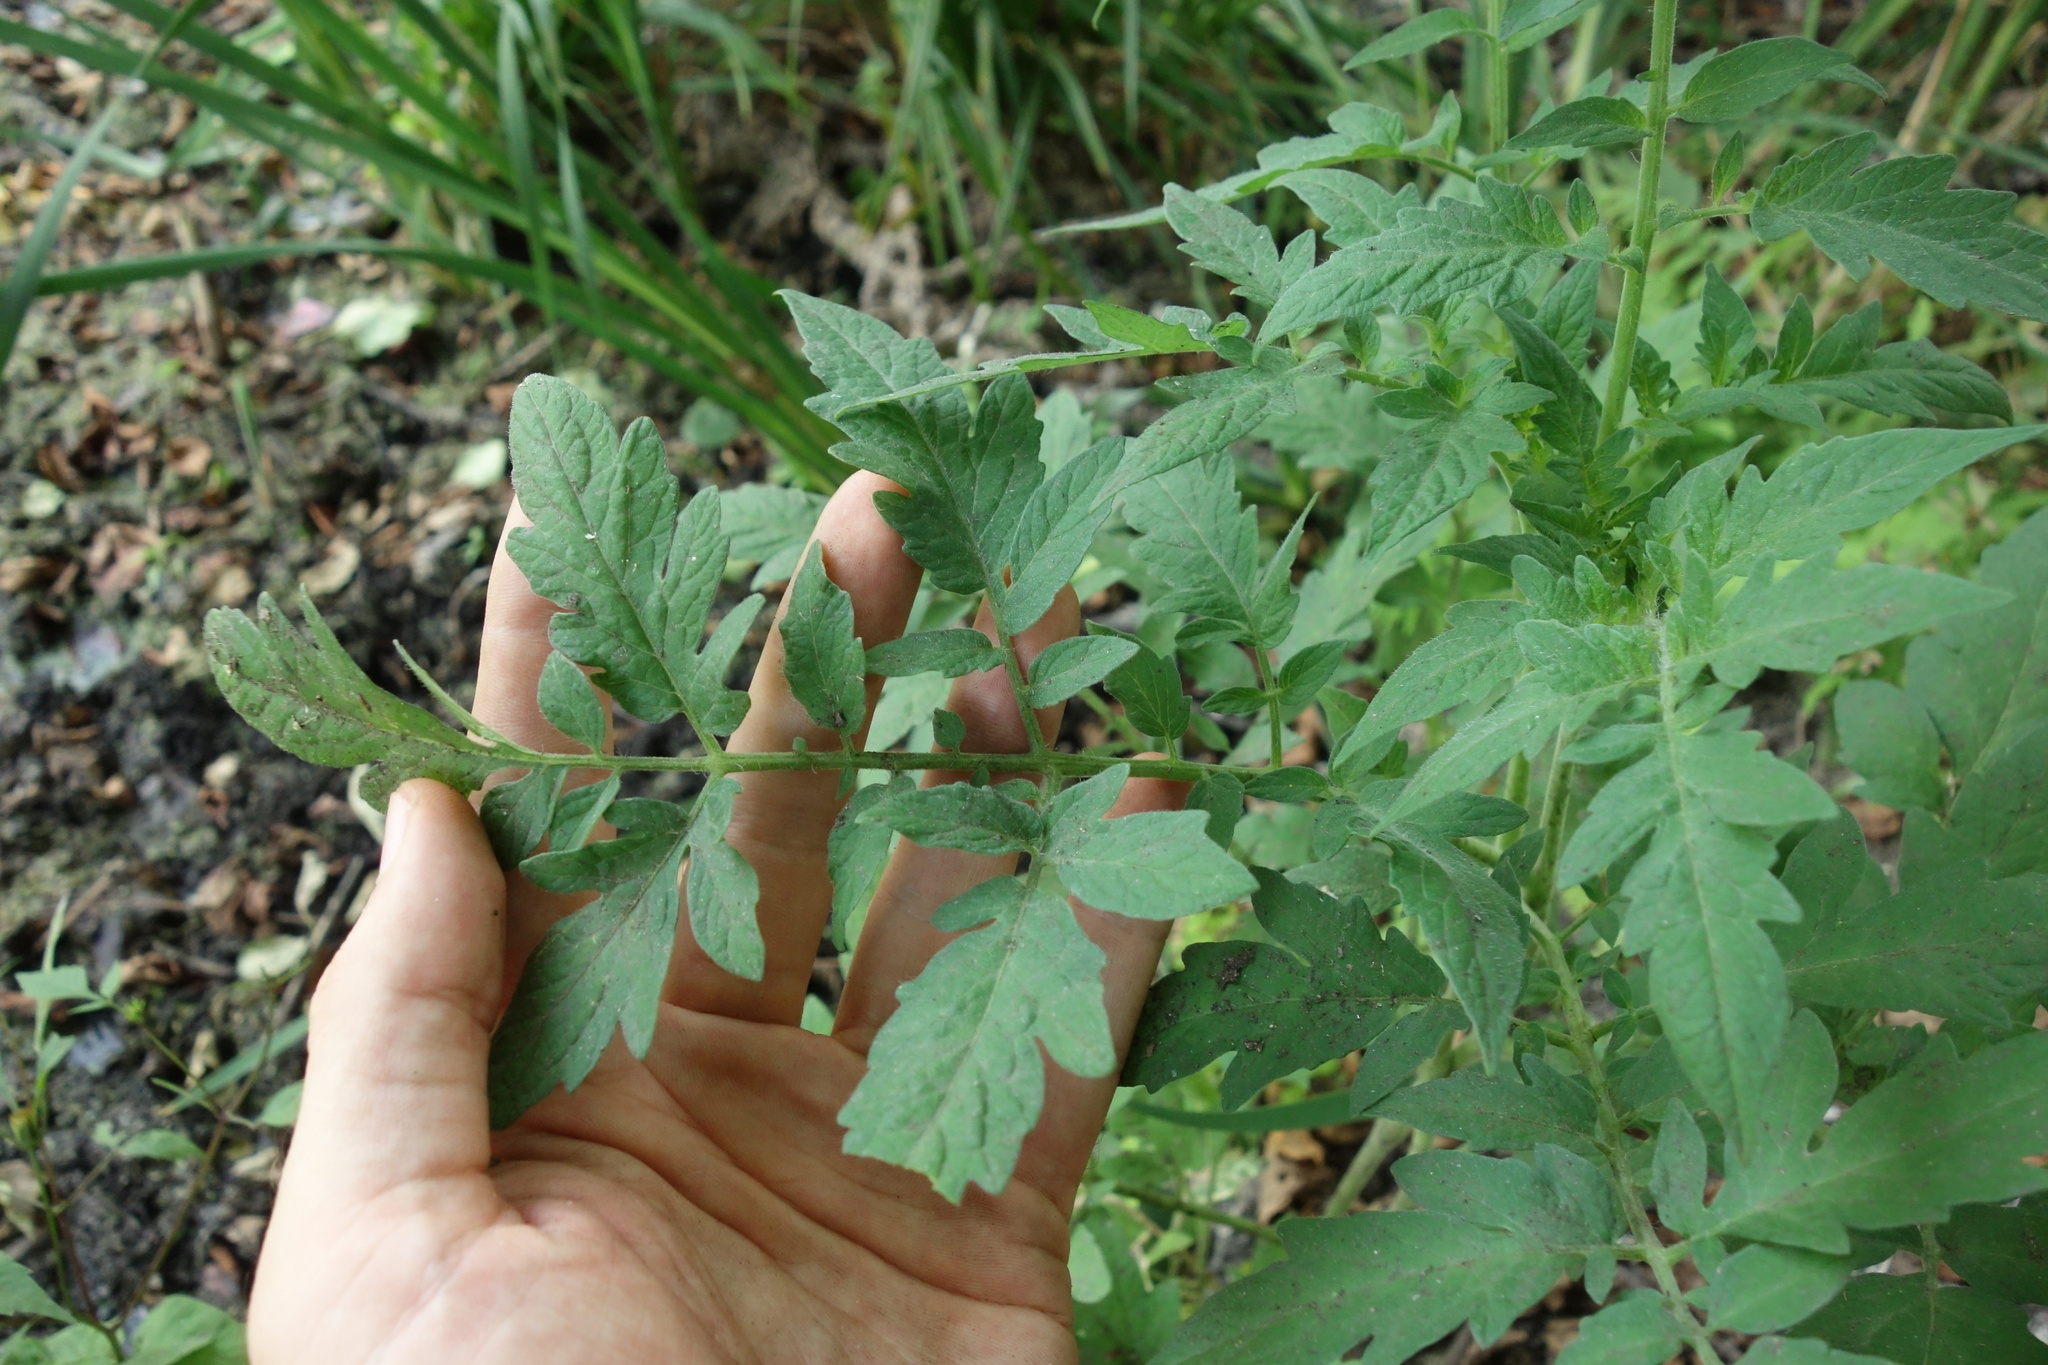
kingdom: Plantae
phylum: Tracheophyta
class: Magnoliopsida
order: Solanales
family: Solanaceae
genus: Solanum
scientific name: Solanum lycopersicum
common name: Garden tomato
